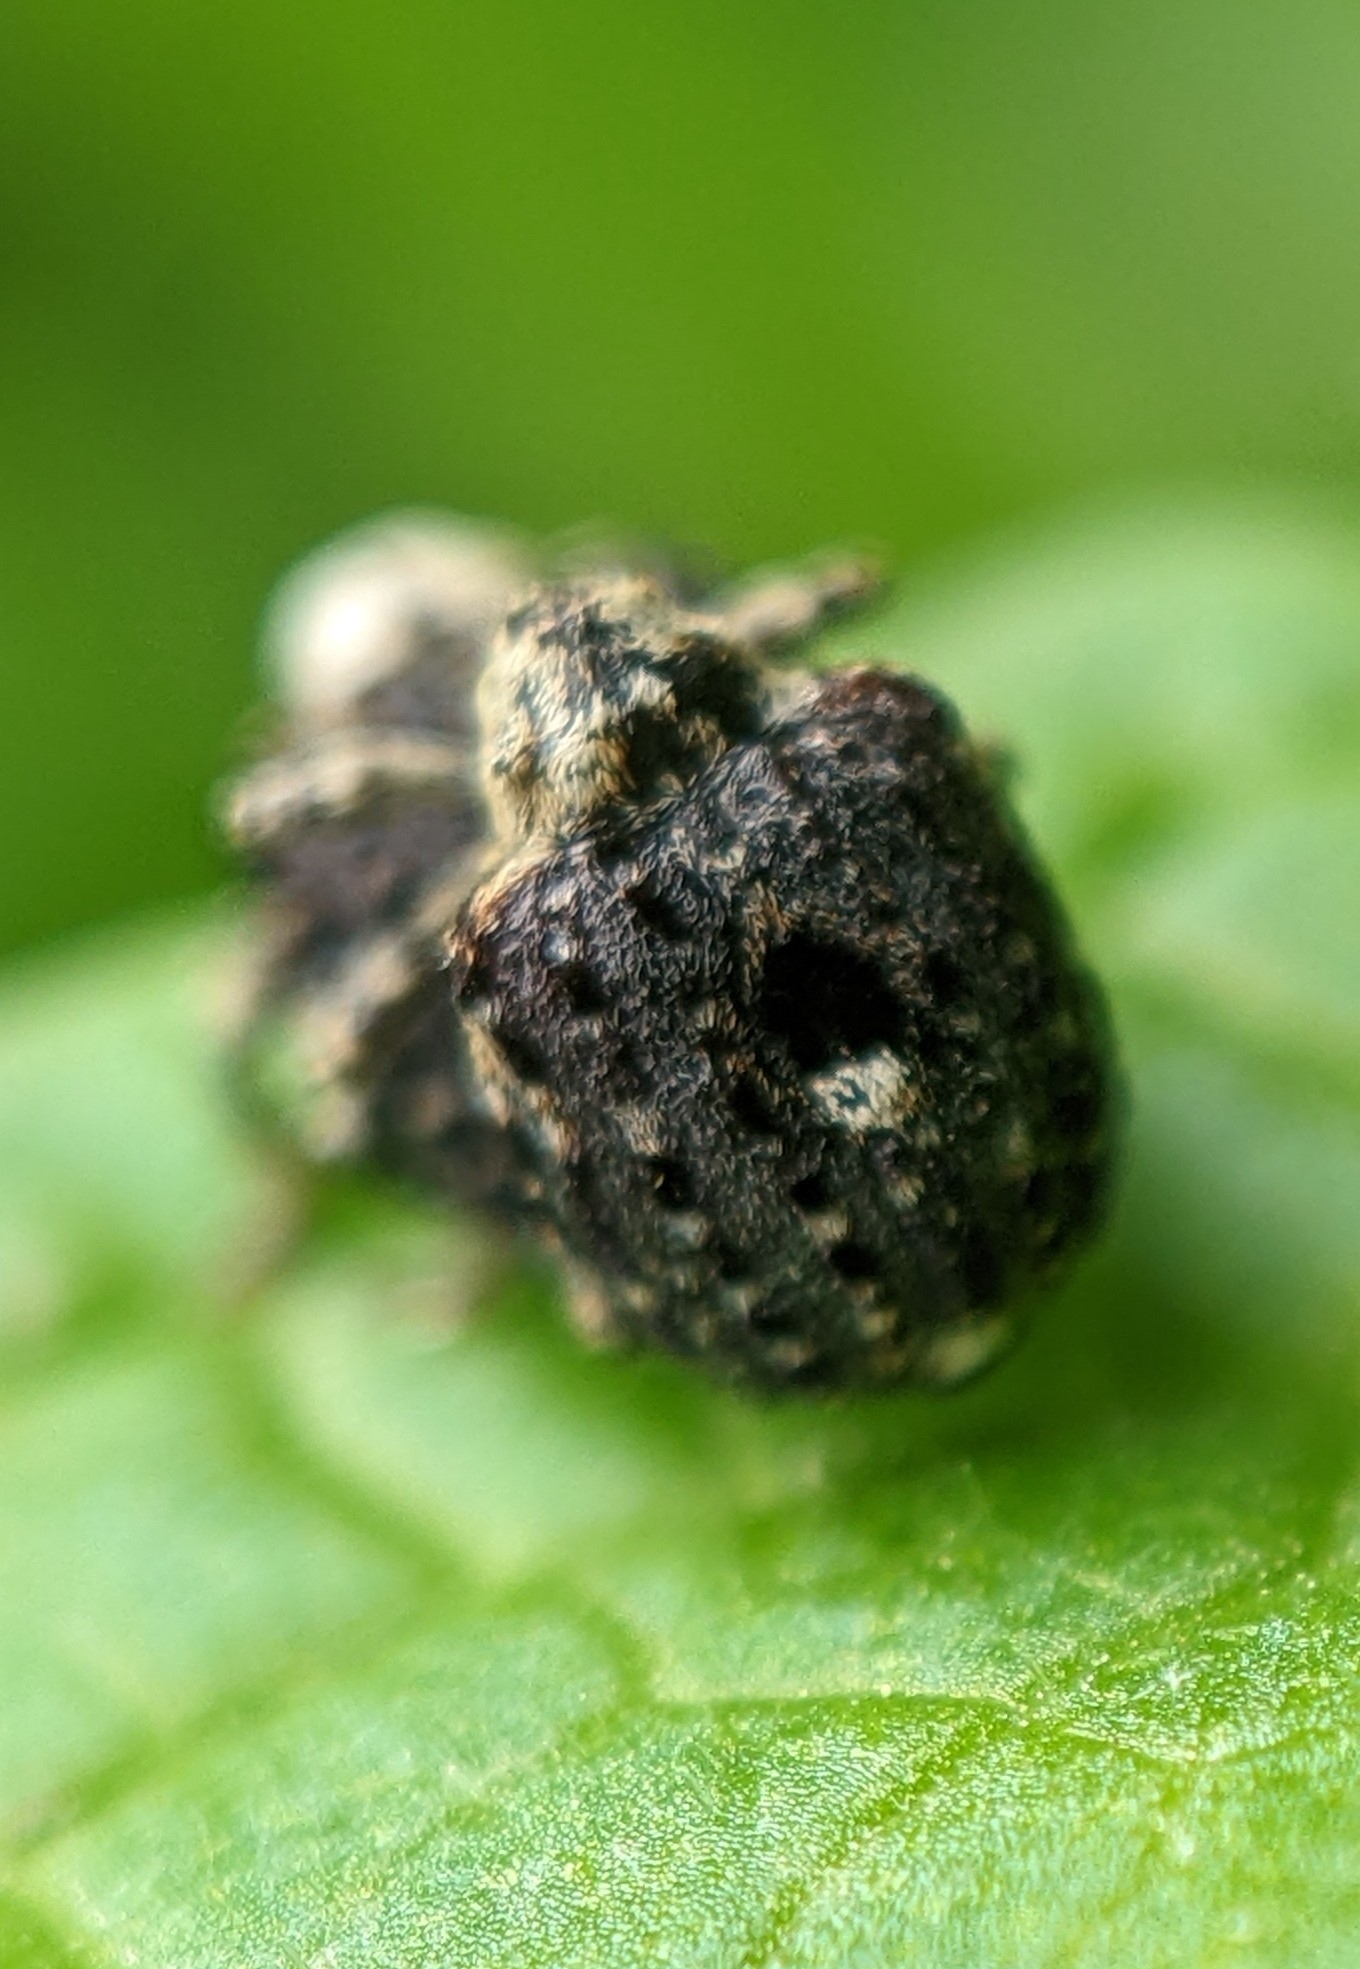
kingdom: Animalia
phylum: Arthropoda
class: Insecta
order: Coleoptera
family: Curculionidae
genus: Cionus
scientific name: Cionus scrophulariae
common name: Common figwort weevil
